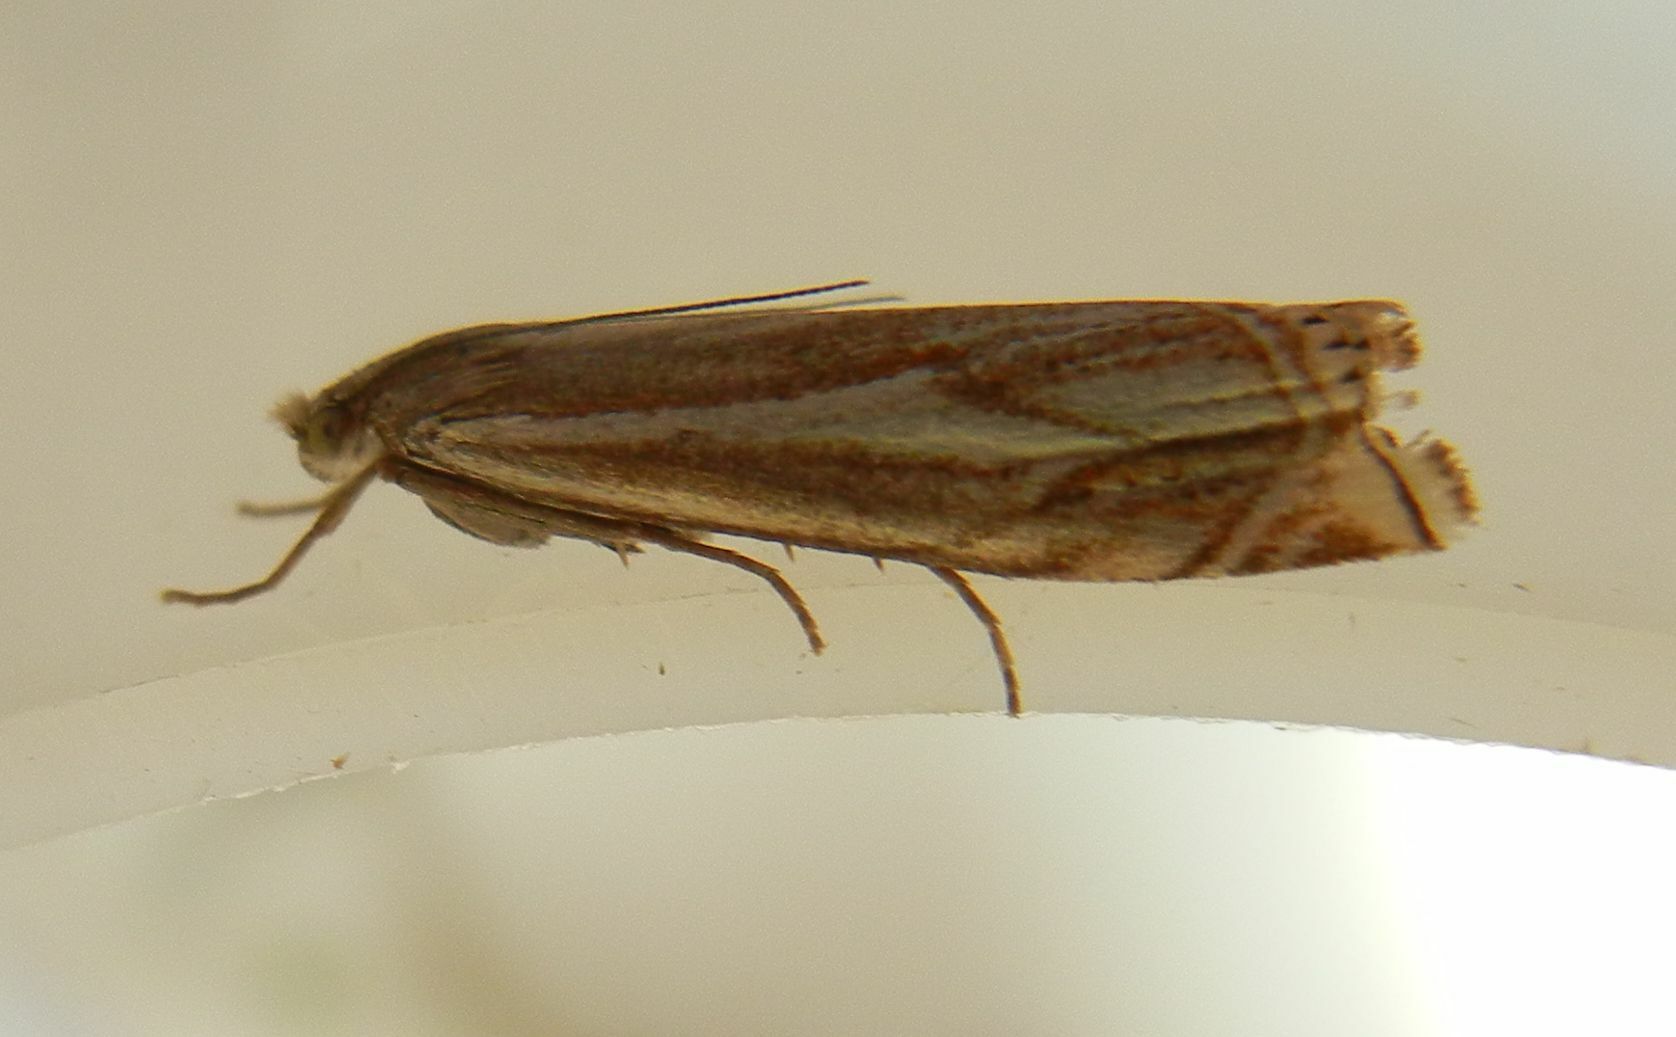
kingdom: Animalia
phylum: Arthropoda
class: Insecta
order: Lepidoptera
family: Crambidae
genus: Crambus
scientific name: Crambus nemorella
